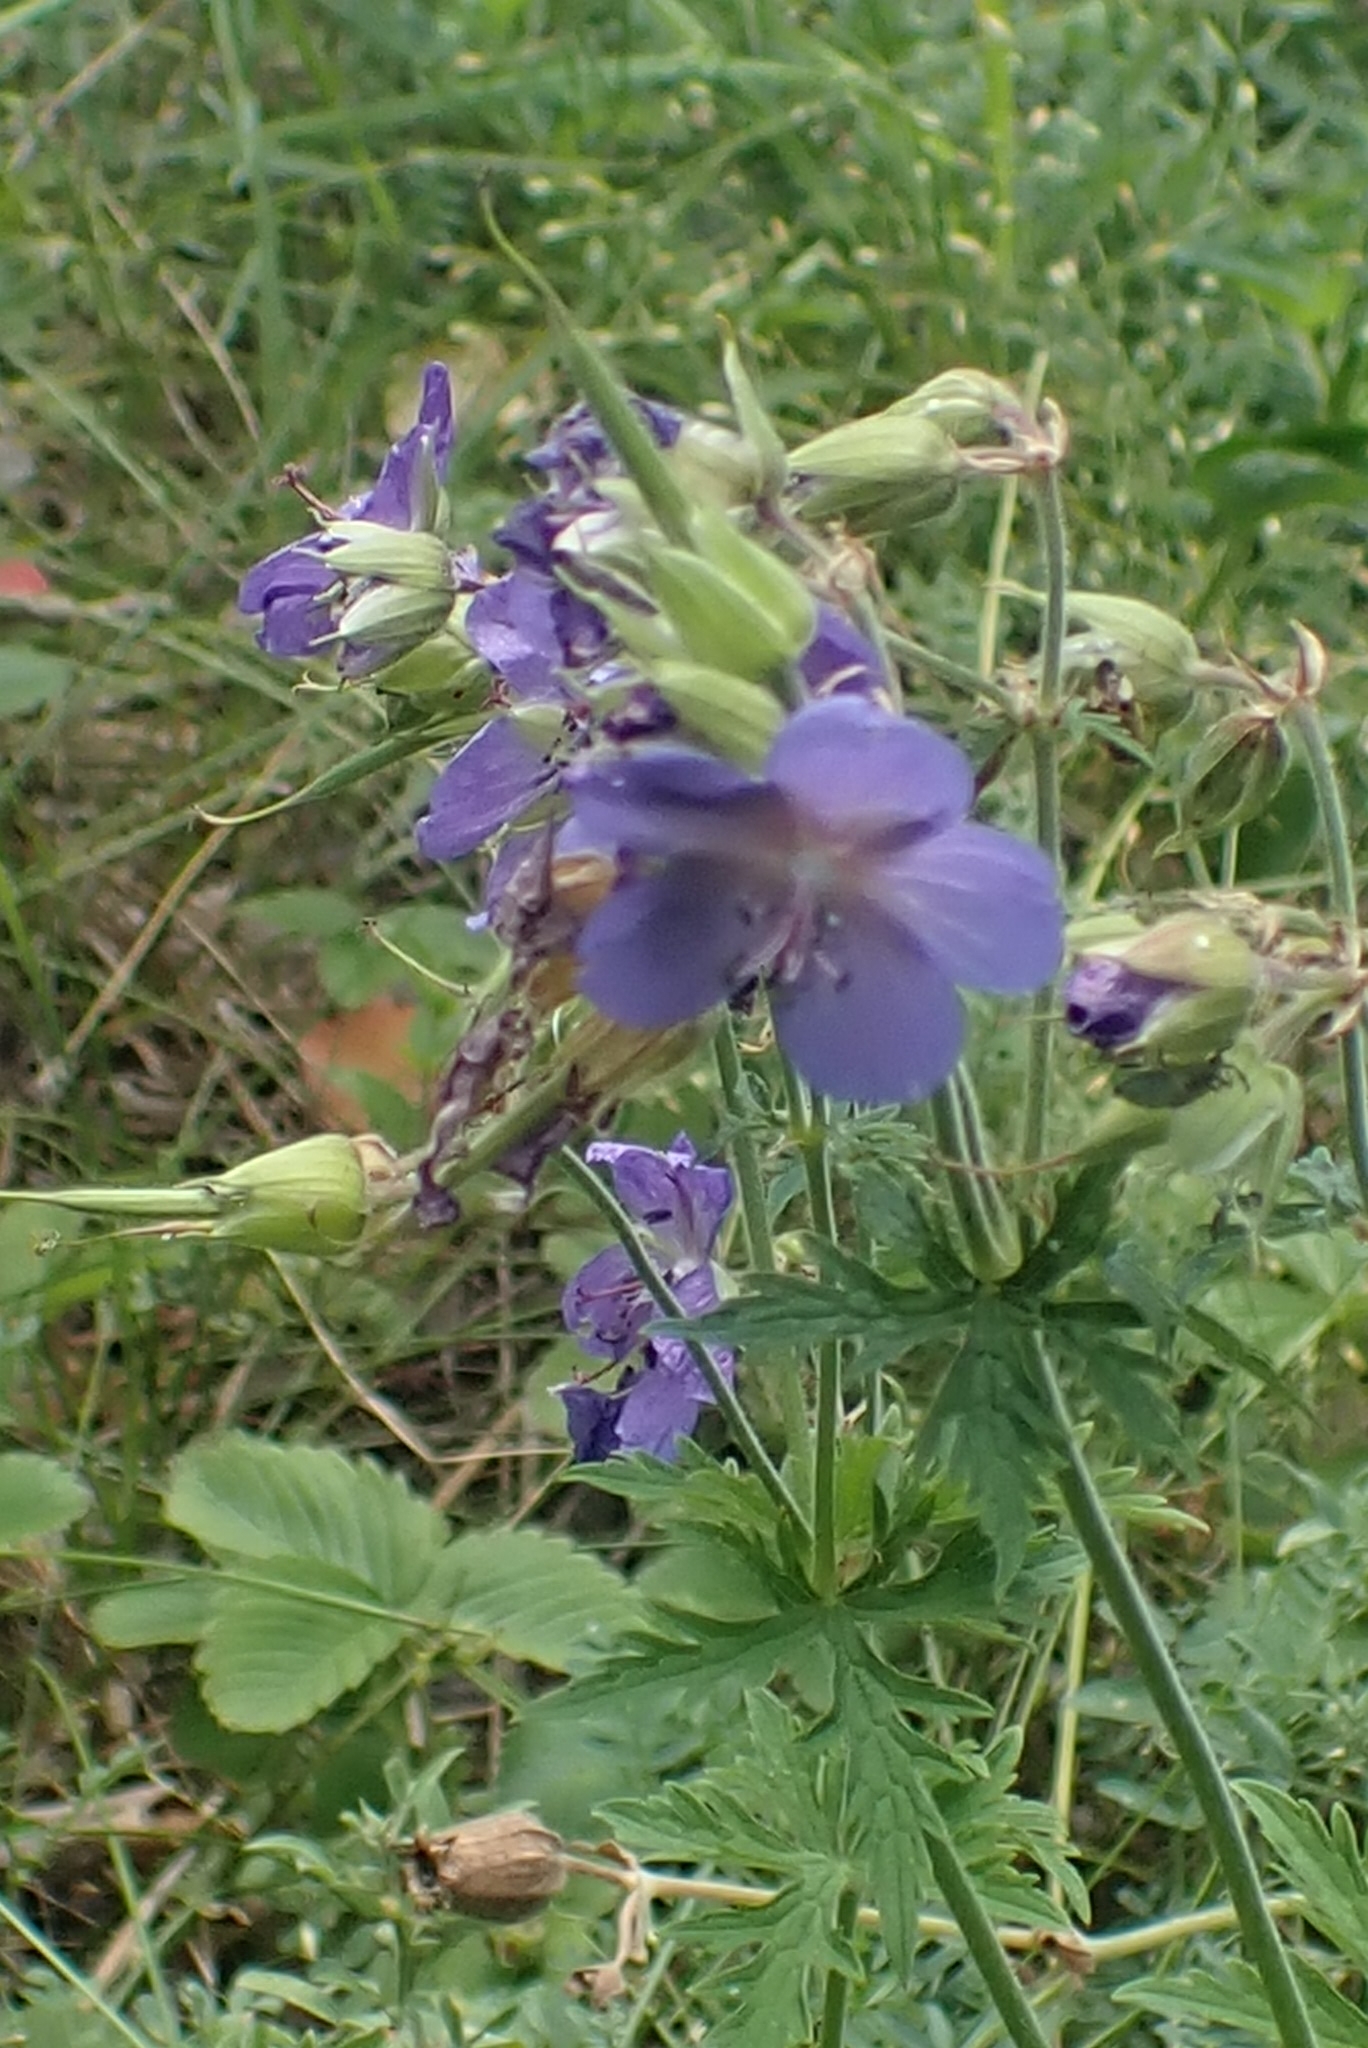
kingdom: Plantae
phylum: Tracheophyta
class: Magnoliopsida
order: Geraniales
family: Geraniaceae
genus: Geranium
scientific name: Geranium pratense
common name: Meadow crane's-bill
